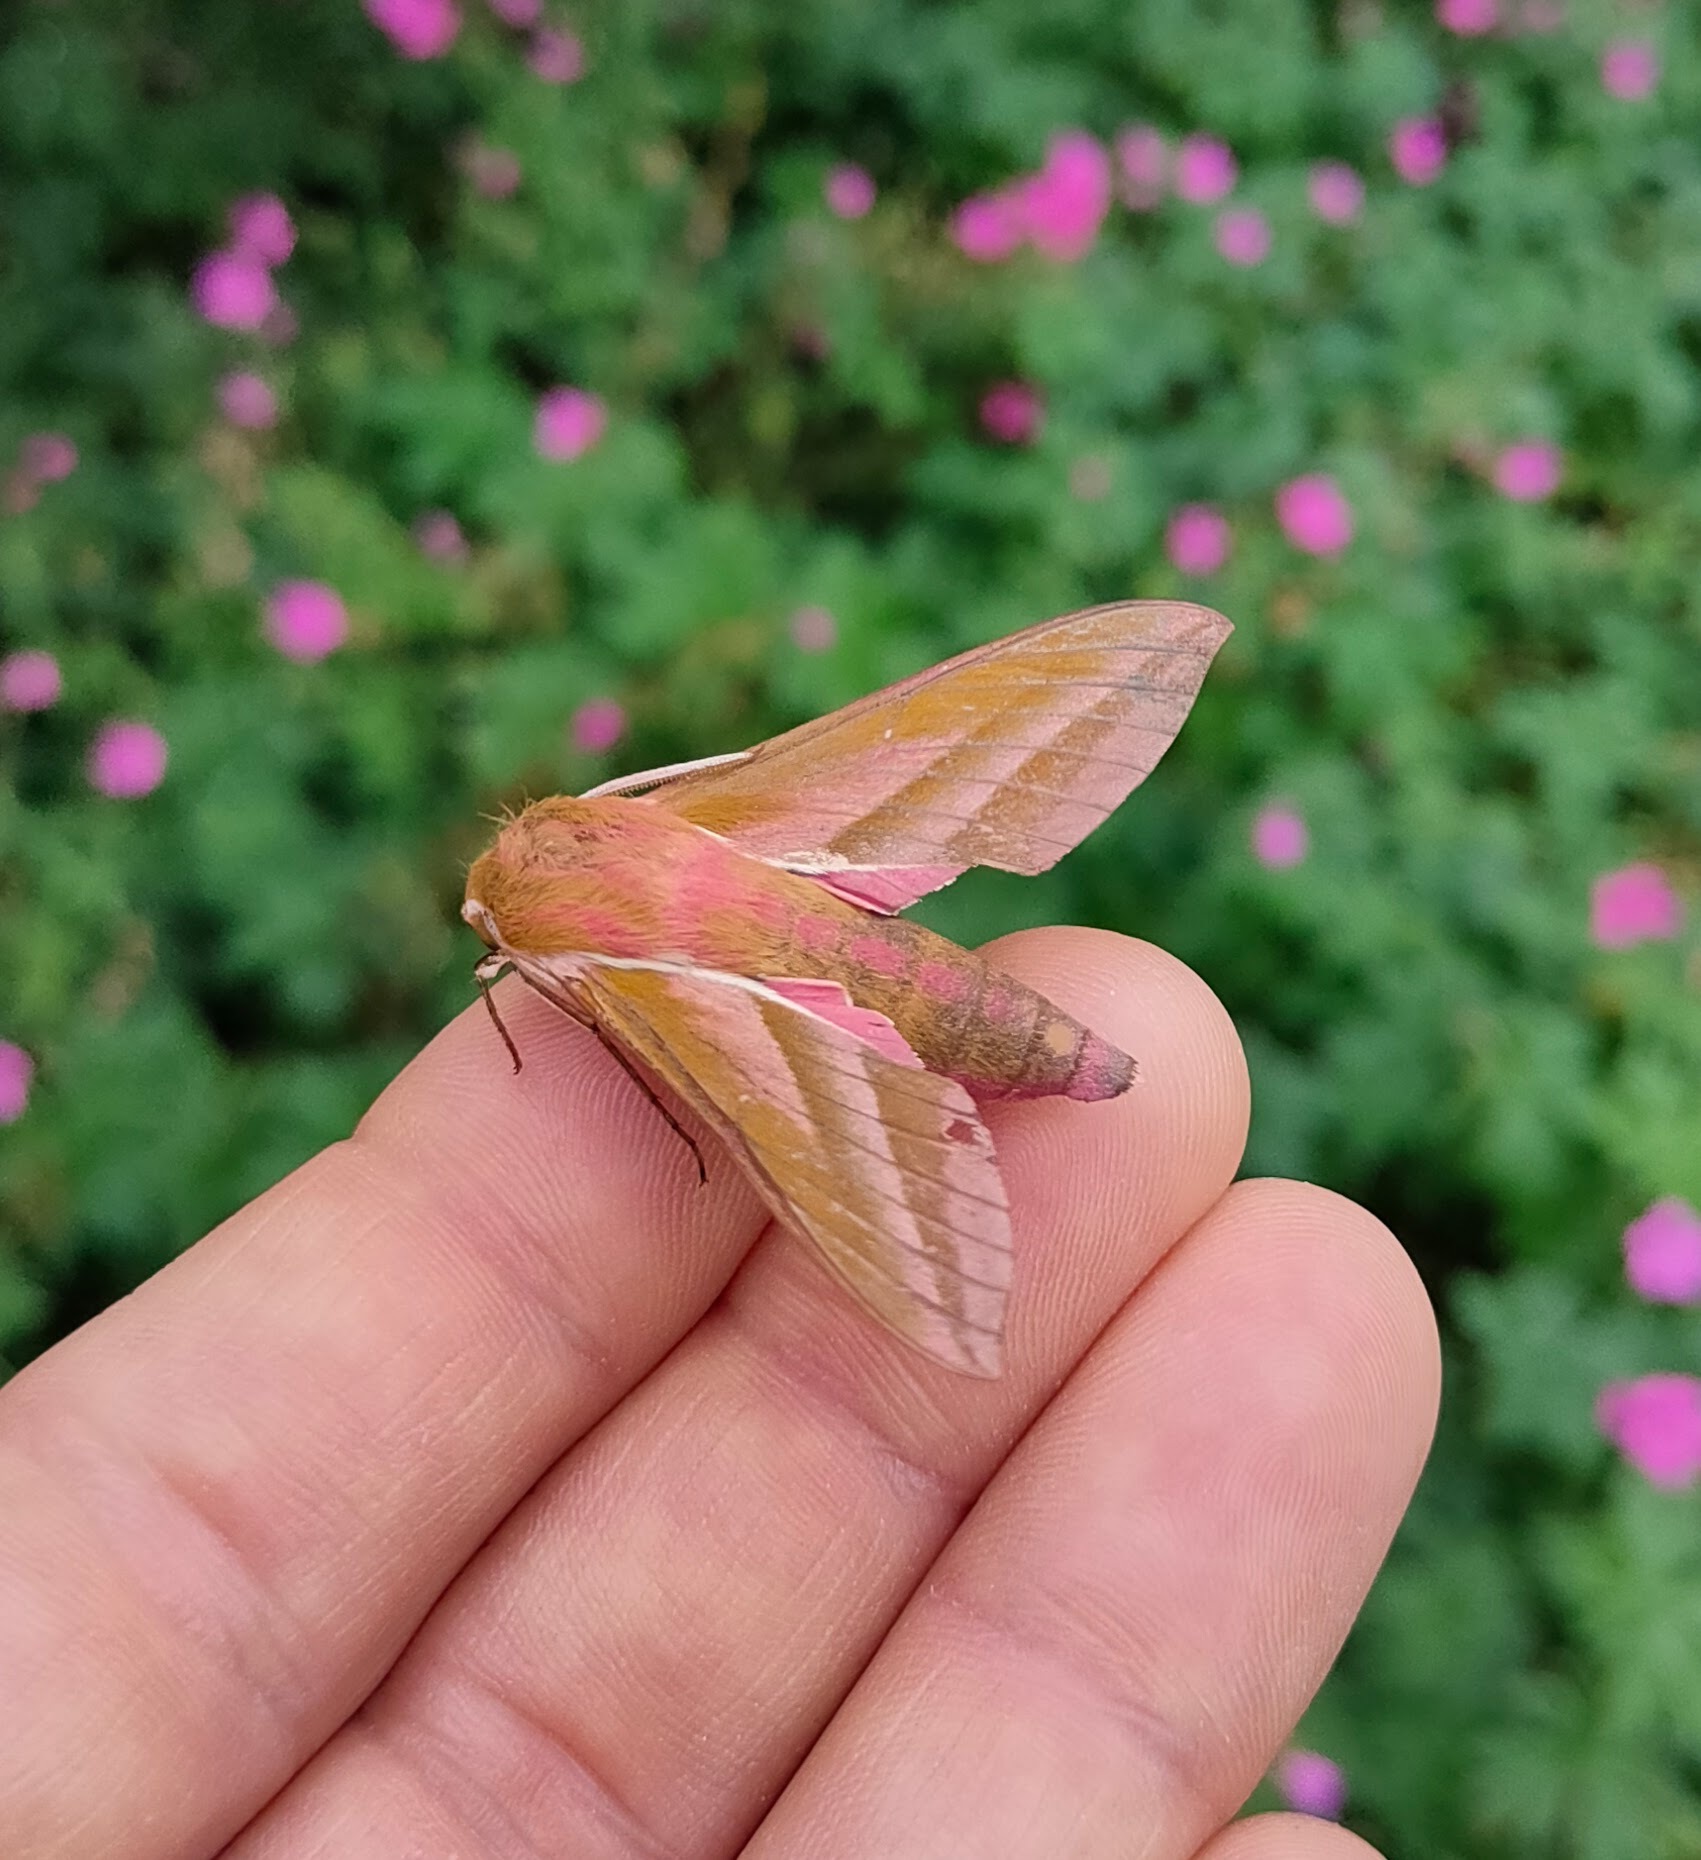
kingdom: Animalia
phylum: Arthropoda
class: Insecta
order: Lepidoptera
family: Sphingidae
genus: Deilephila
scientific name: Deilephila elpenor
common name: Elephant hawk-moth
